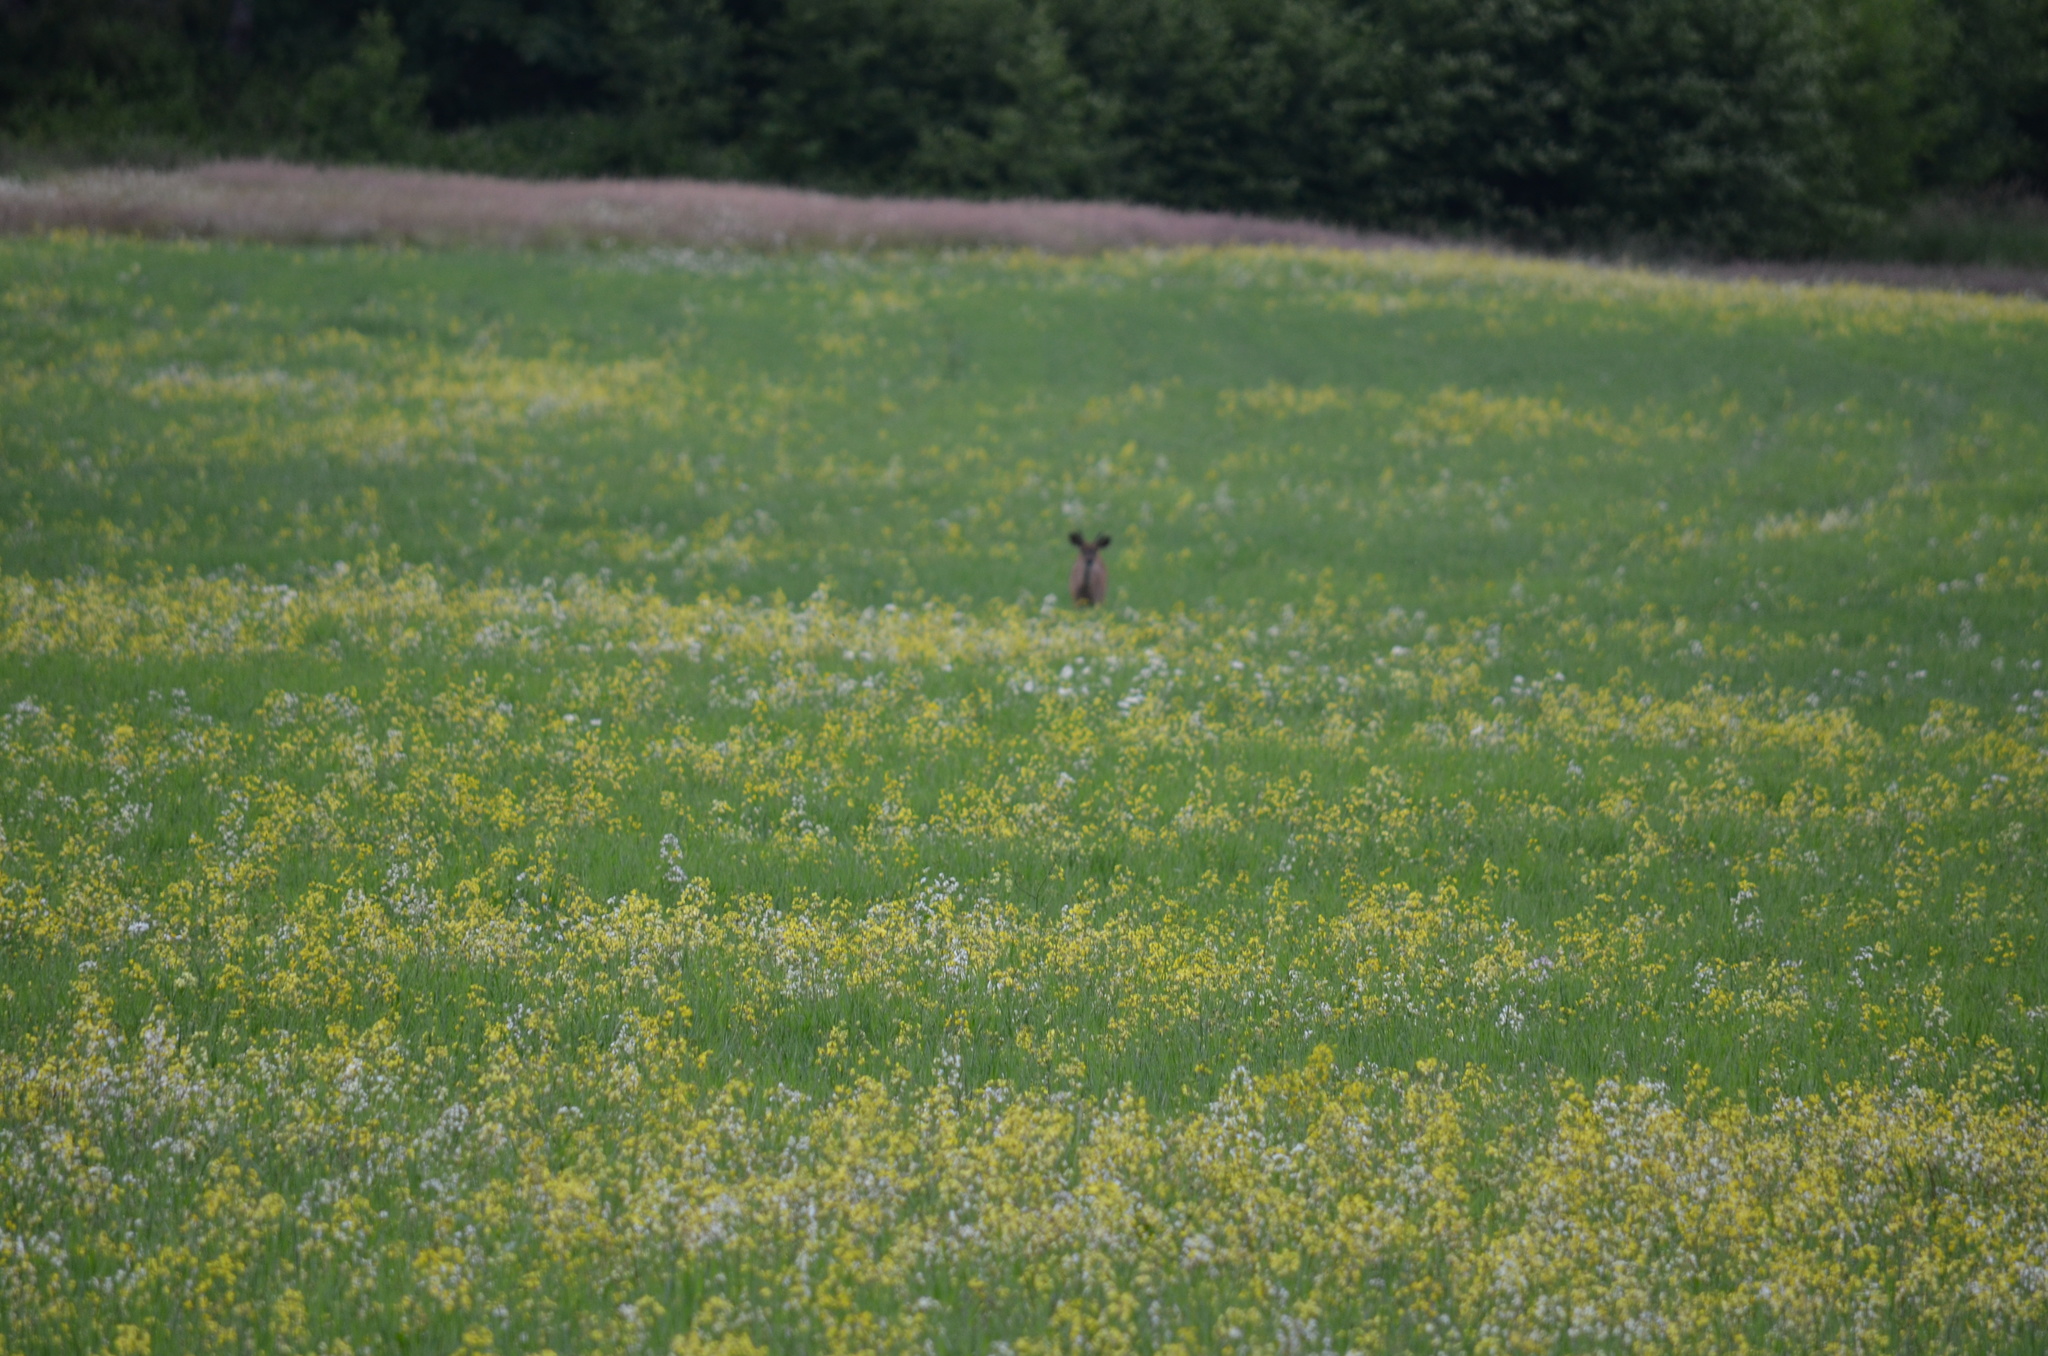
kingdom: Animalia
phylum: Chordata
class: Mammalia
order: Artiodactyla
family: Cervidae
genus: Odocoileus
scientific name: Odocoileus hemionus
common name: Mule deer
